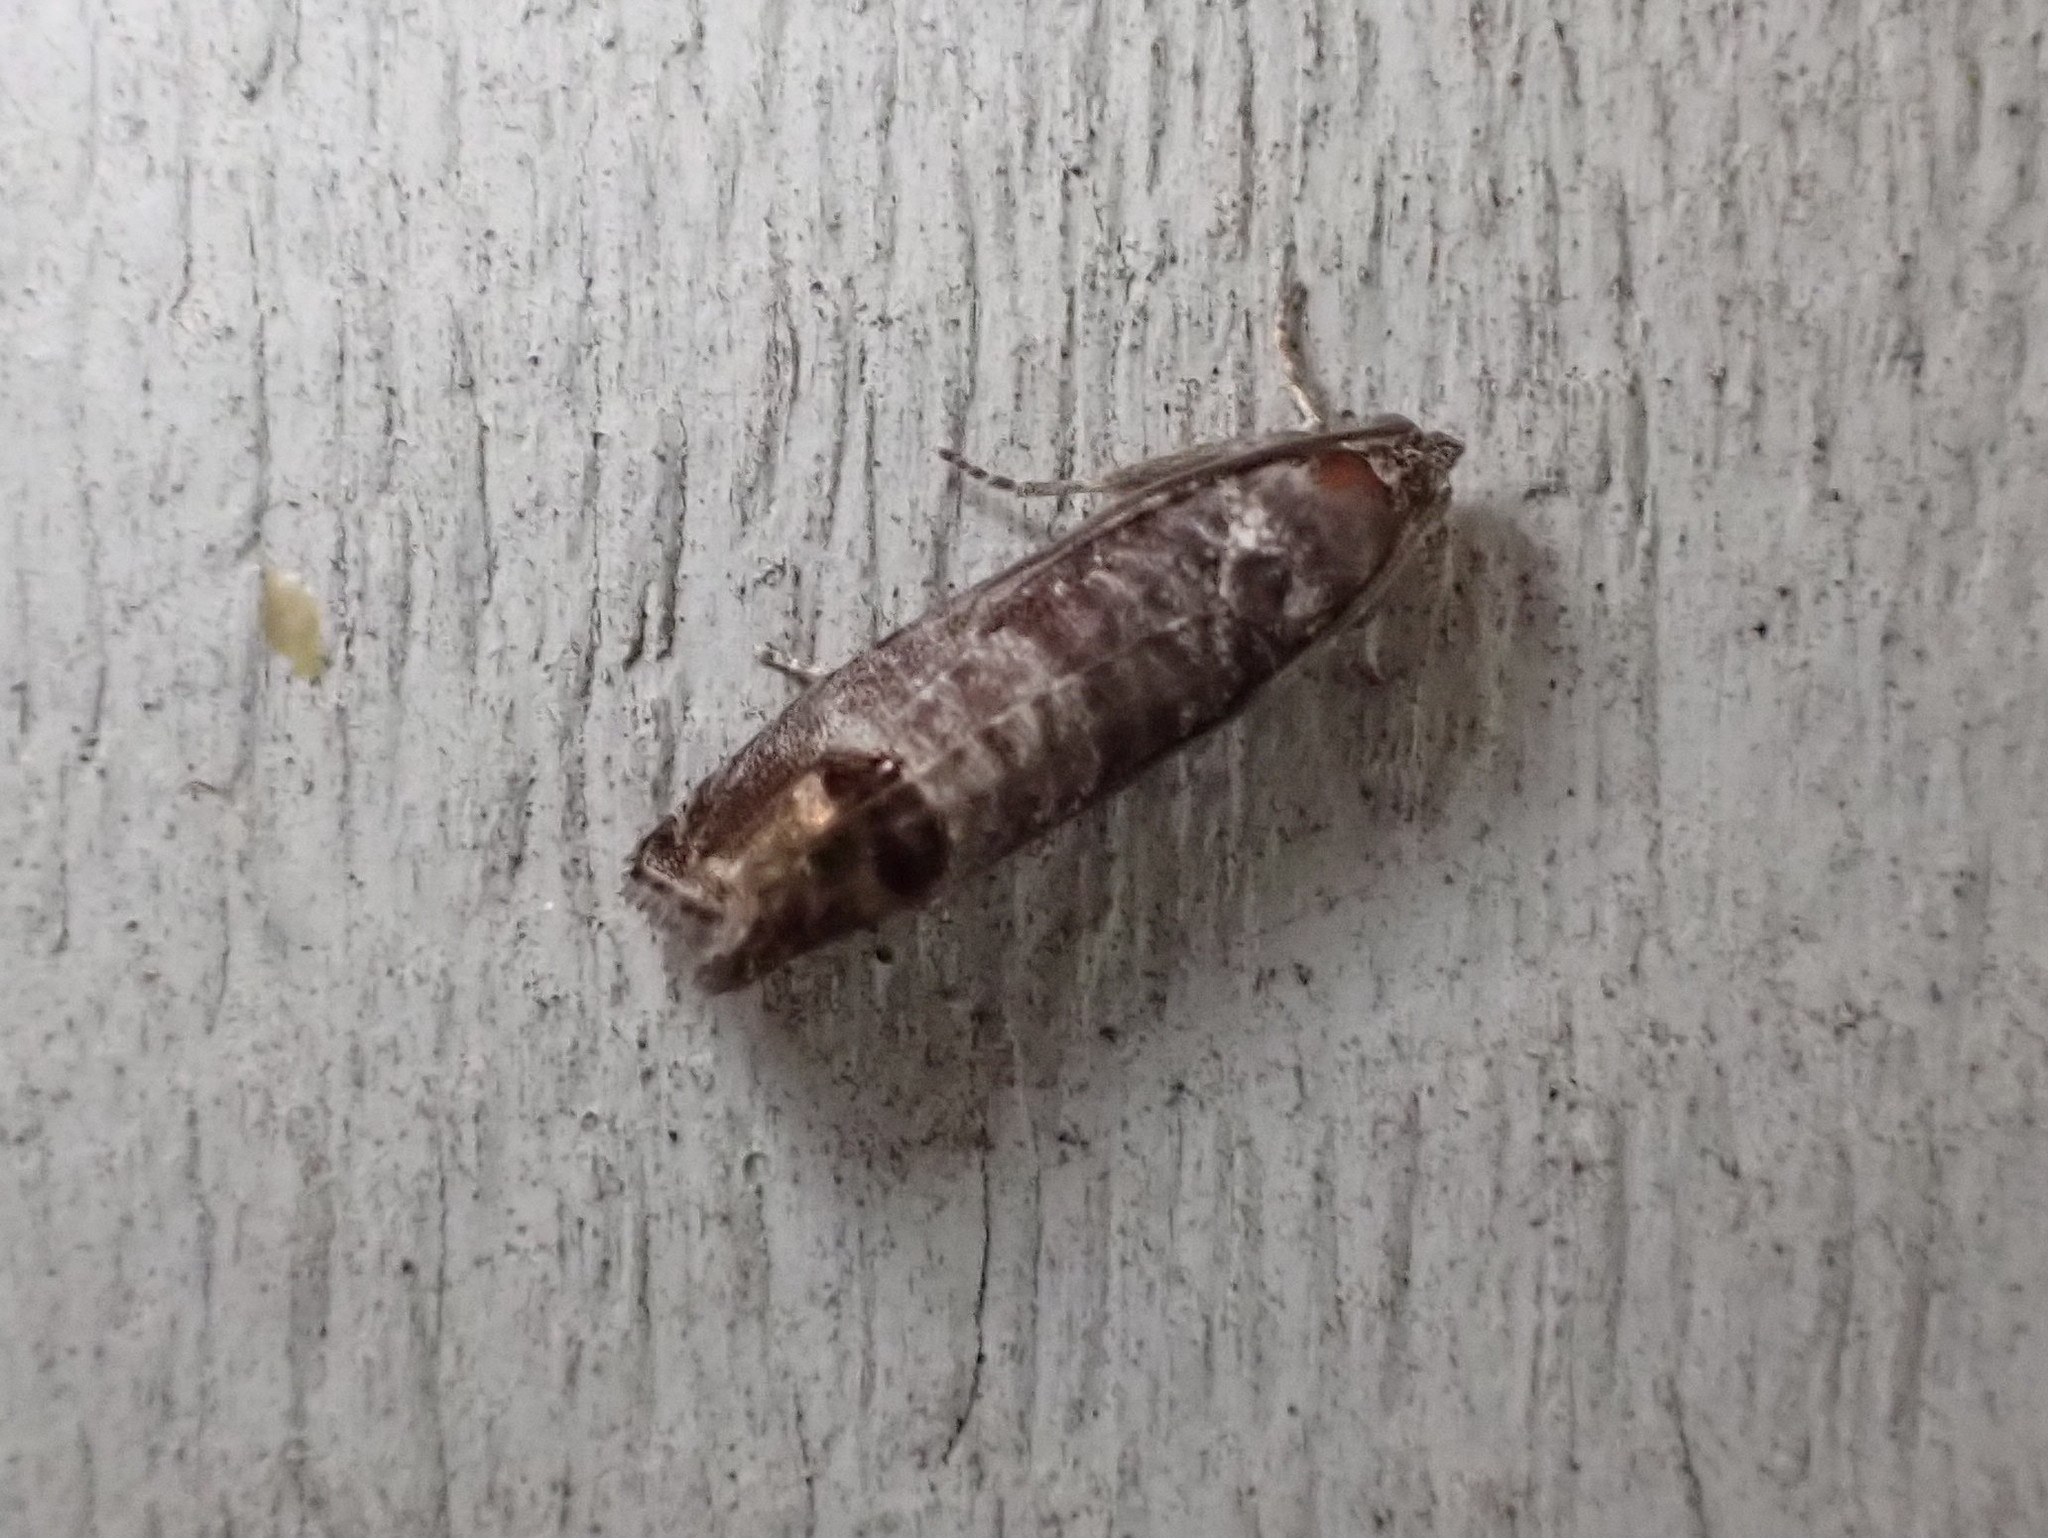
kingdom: Animalia
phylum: Arthropoda
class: Insecta
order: Lepidoptera
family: Tortricidae
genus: Cydia
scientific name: Cydia pomonella
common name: Codling moth
